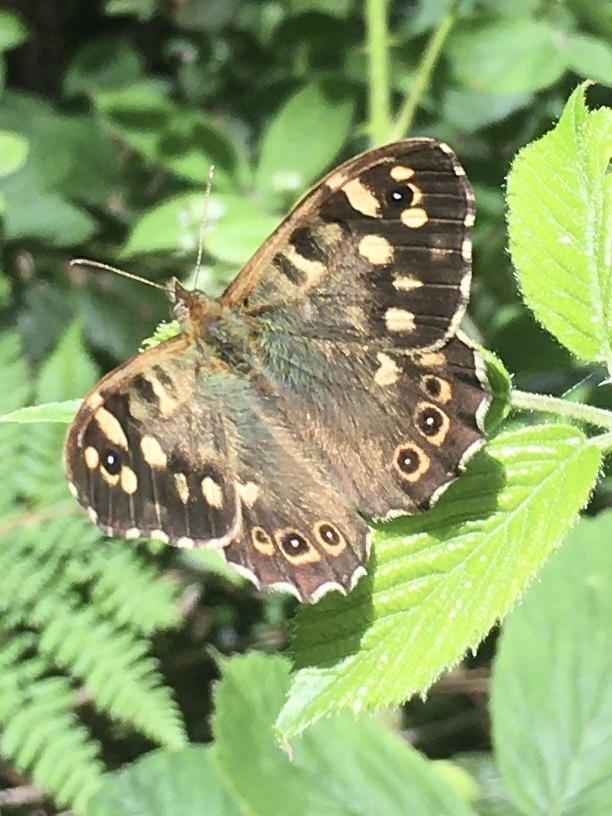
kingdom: Animalia
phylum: Arthropoda
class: Insecta
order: Lepidoptera
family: Nymphalidae
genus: Pararge
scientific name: Pararge aegeria
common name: Speckled wood
